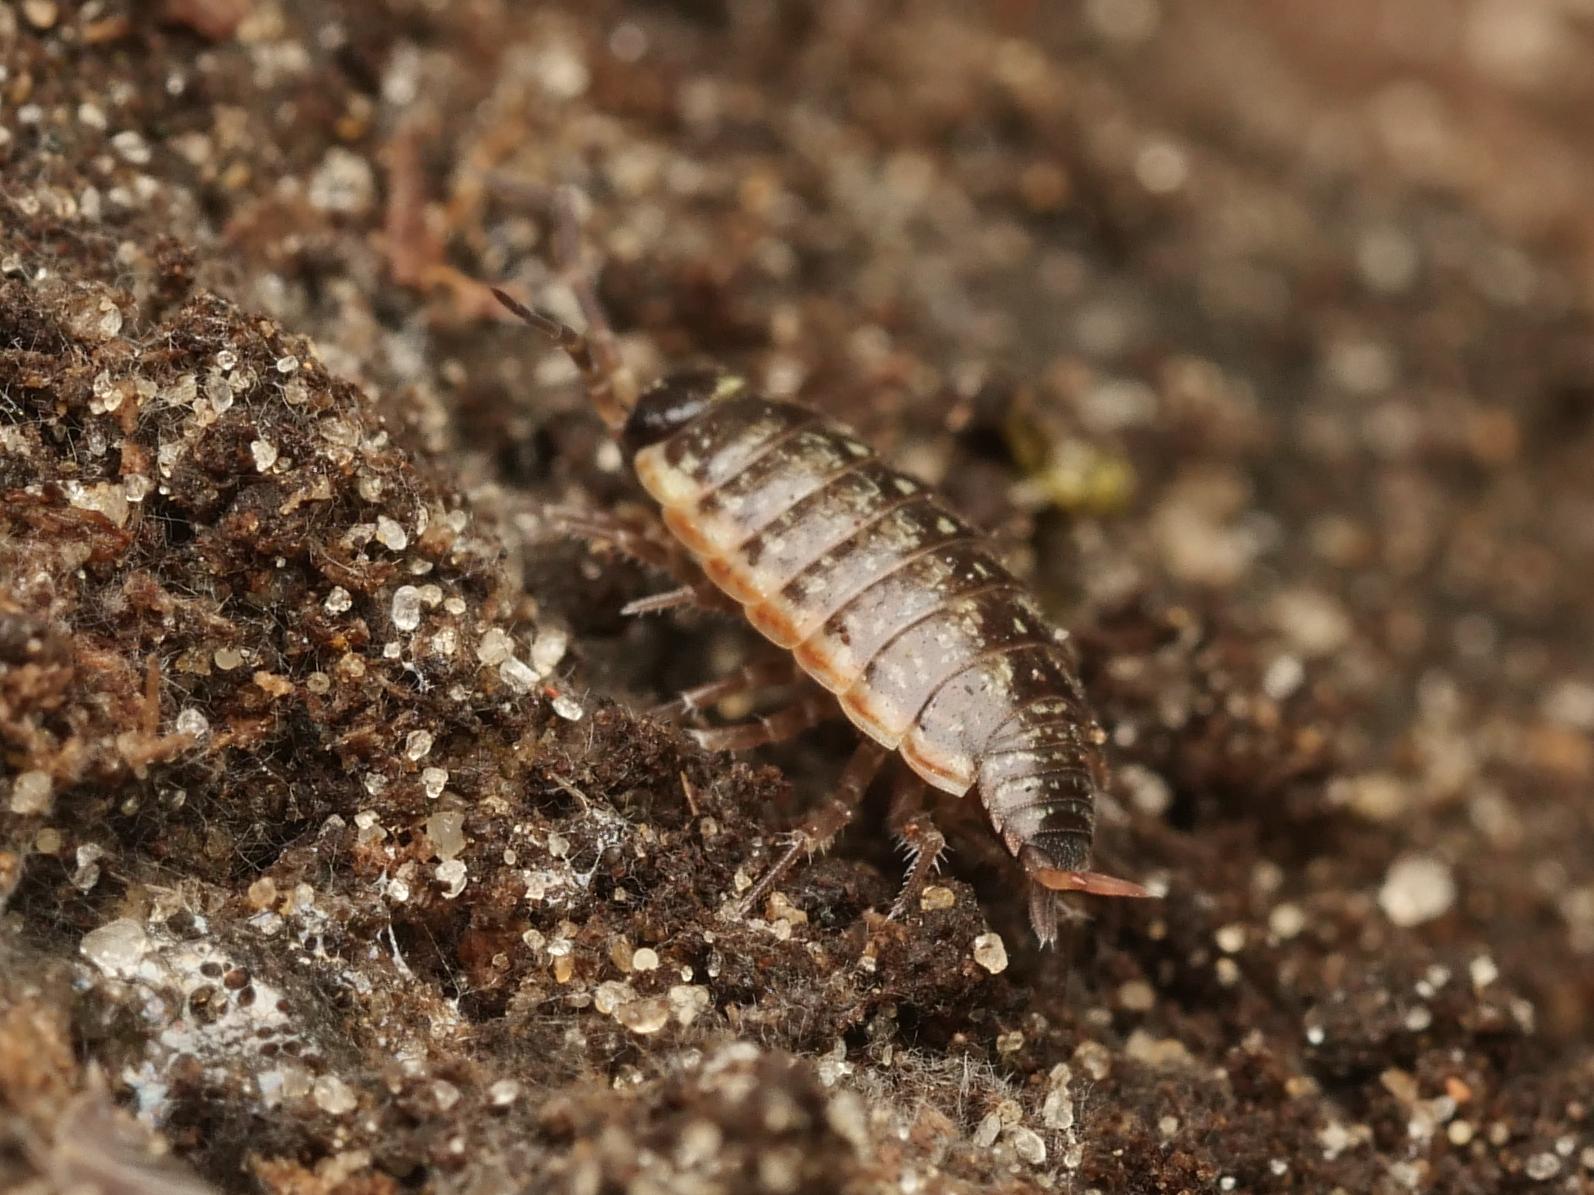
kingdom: Animalia
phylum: Arthropoda
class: Malacostraca
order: Isopoda
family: Philosciidae
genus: Philoscia
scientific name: Philoscia muscorum
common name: Common striped woodlouse
